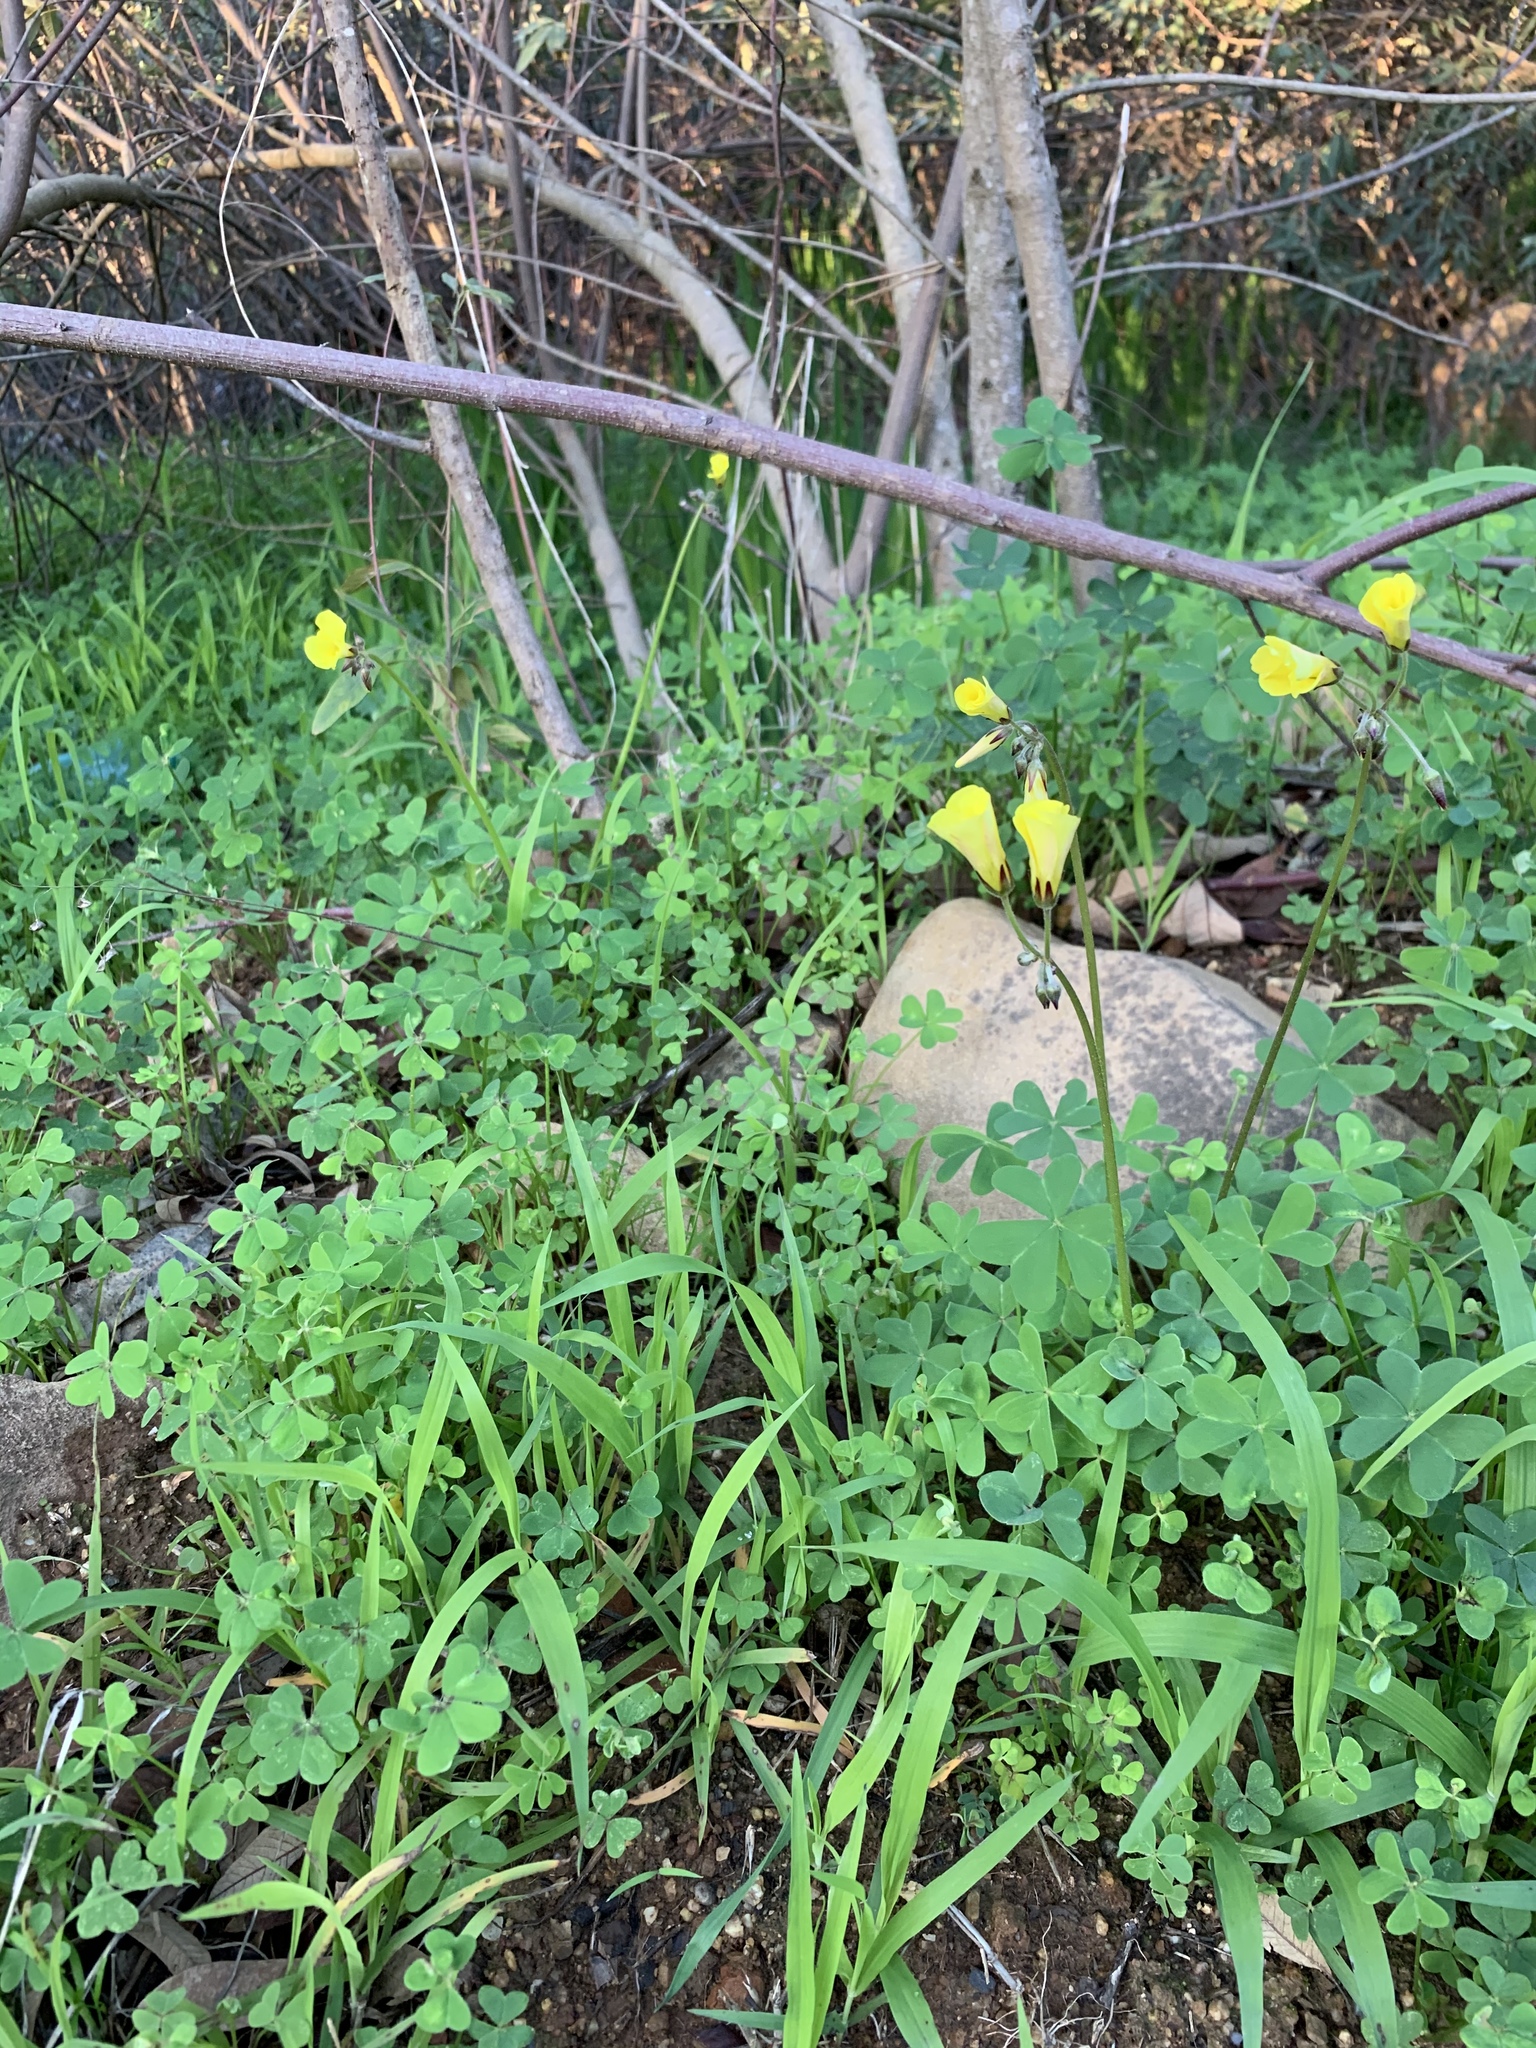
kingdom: Plantae
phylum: Tracheophyta
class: Magnoliopsida
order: Oxalidales
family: Oxalidaceae
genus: Oxalis
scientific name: Oxalis pes-caprae
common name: Bermuda-buttercup
